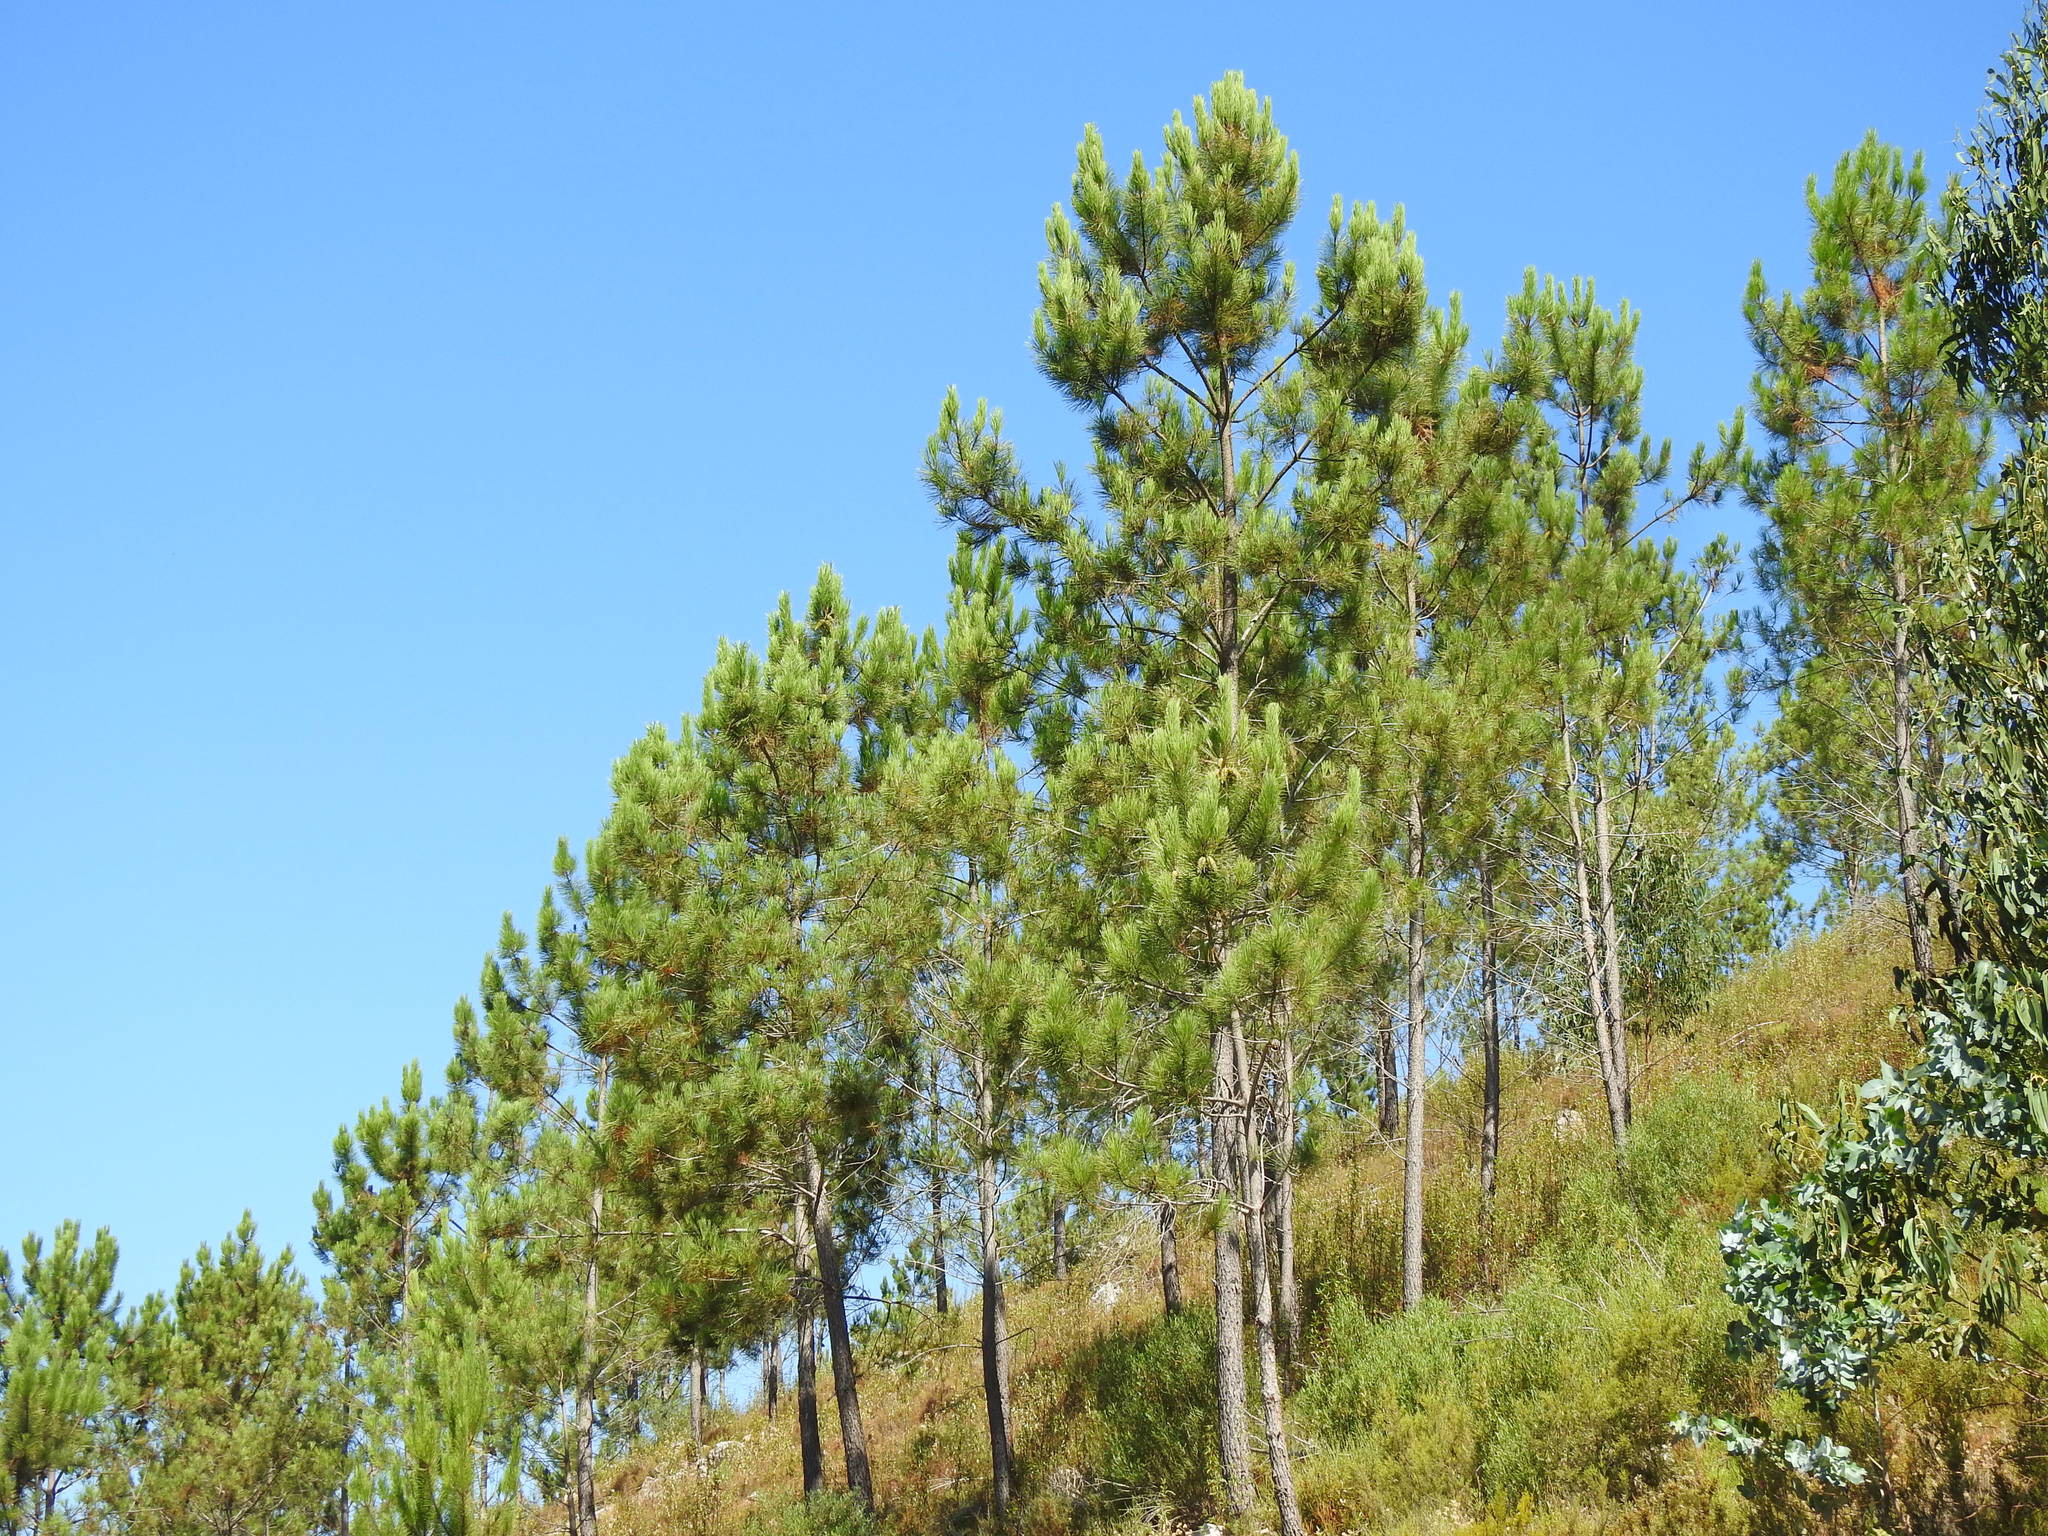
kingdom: Plantae
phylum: Tracheophyta
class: Pinopsida
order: Pinales
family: Pinaceae
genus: Pinus
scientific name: Pinus pinaster
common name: Maritime pine
